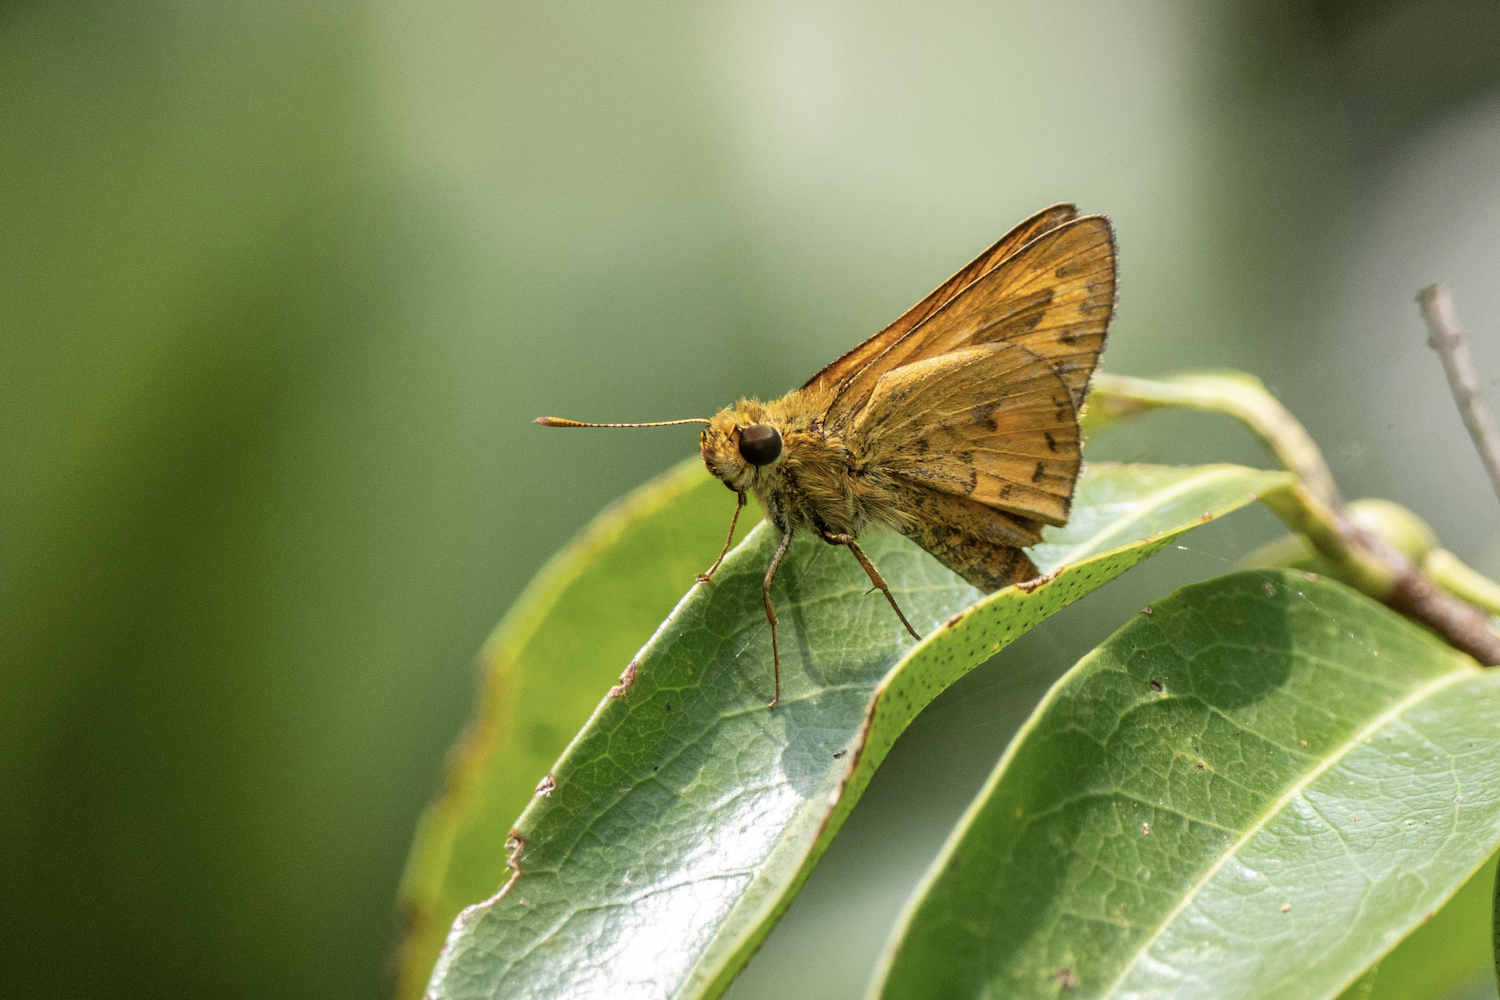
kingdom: Animalia
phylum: Arthropoda
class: Insecta
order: Lepidoptera
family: Hesperiidae
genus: Telicota
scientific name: Telicota bambusae
